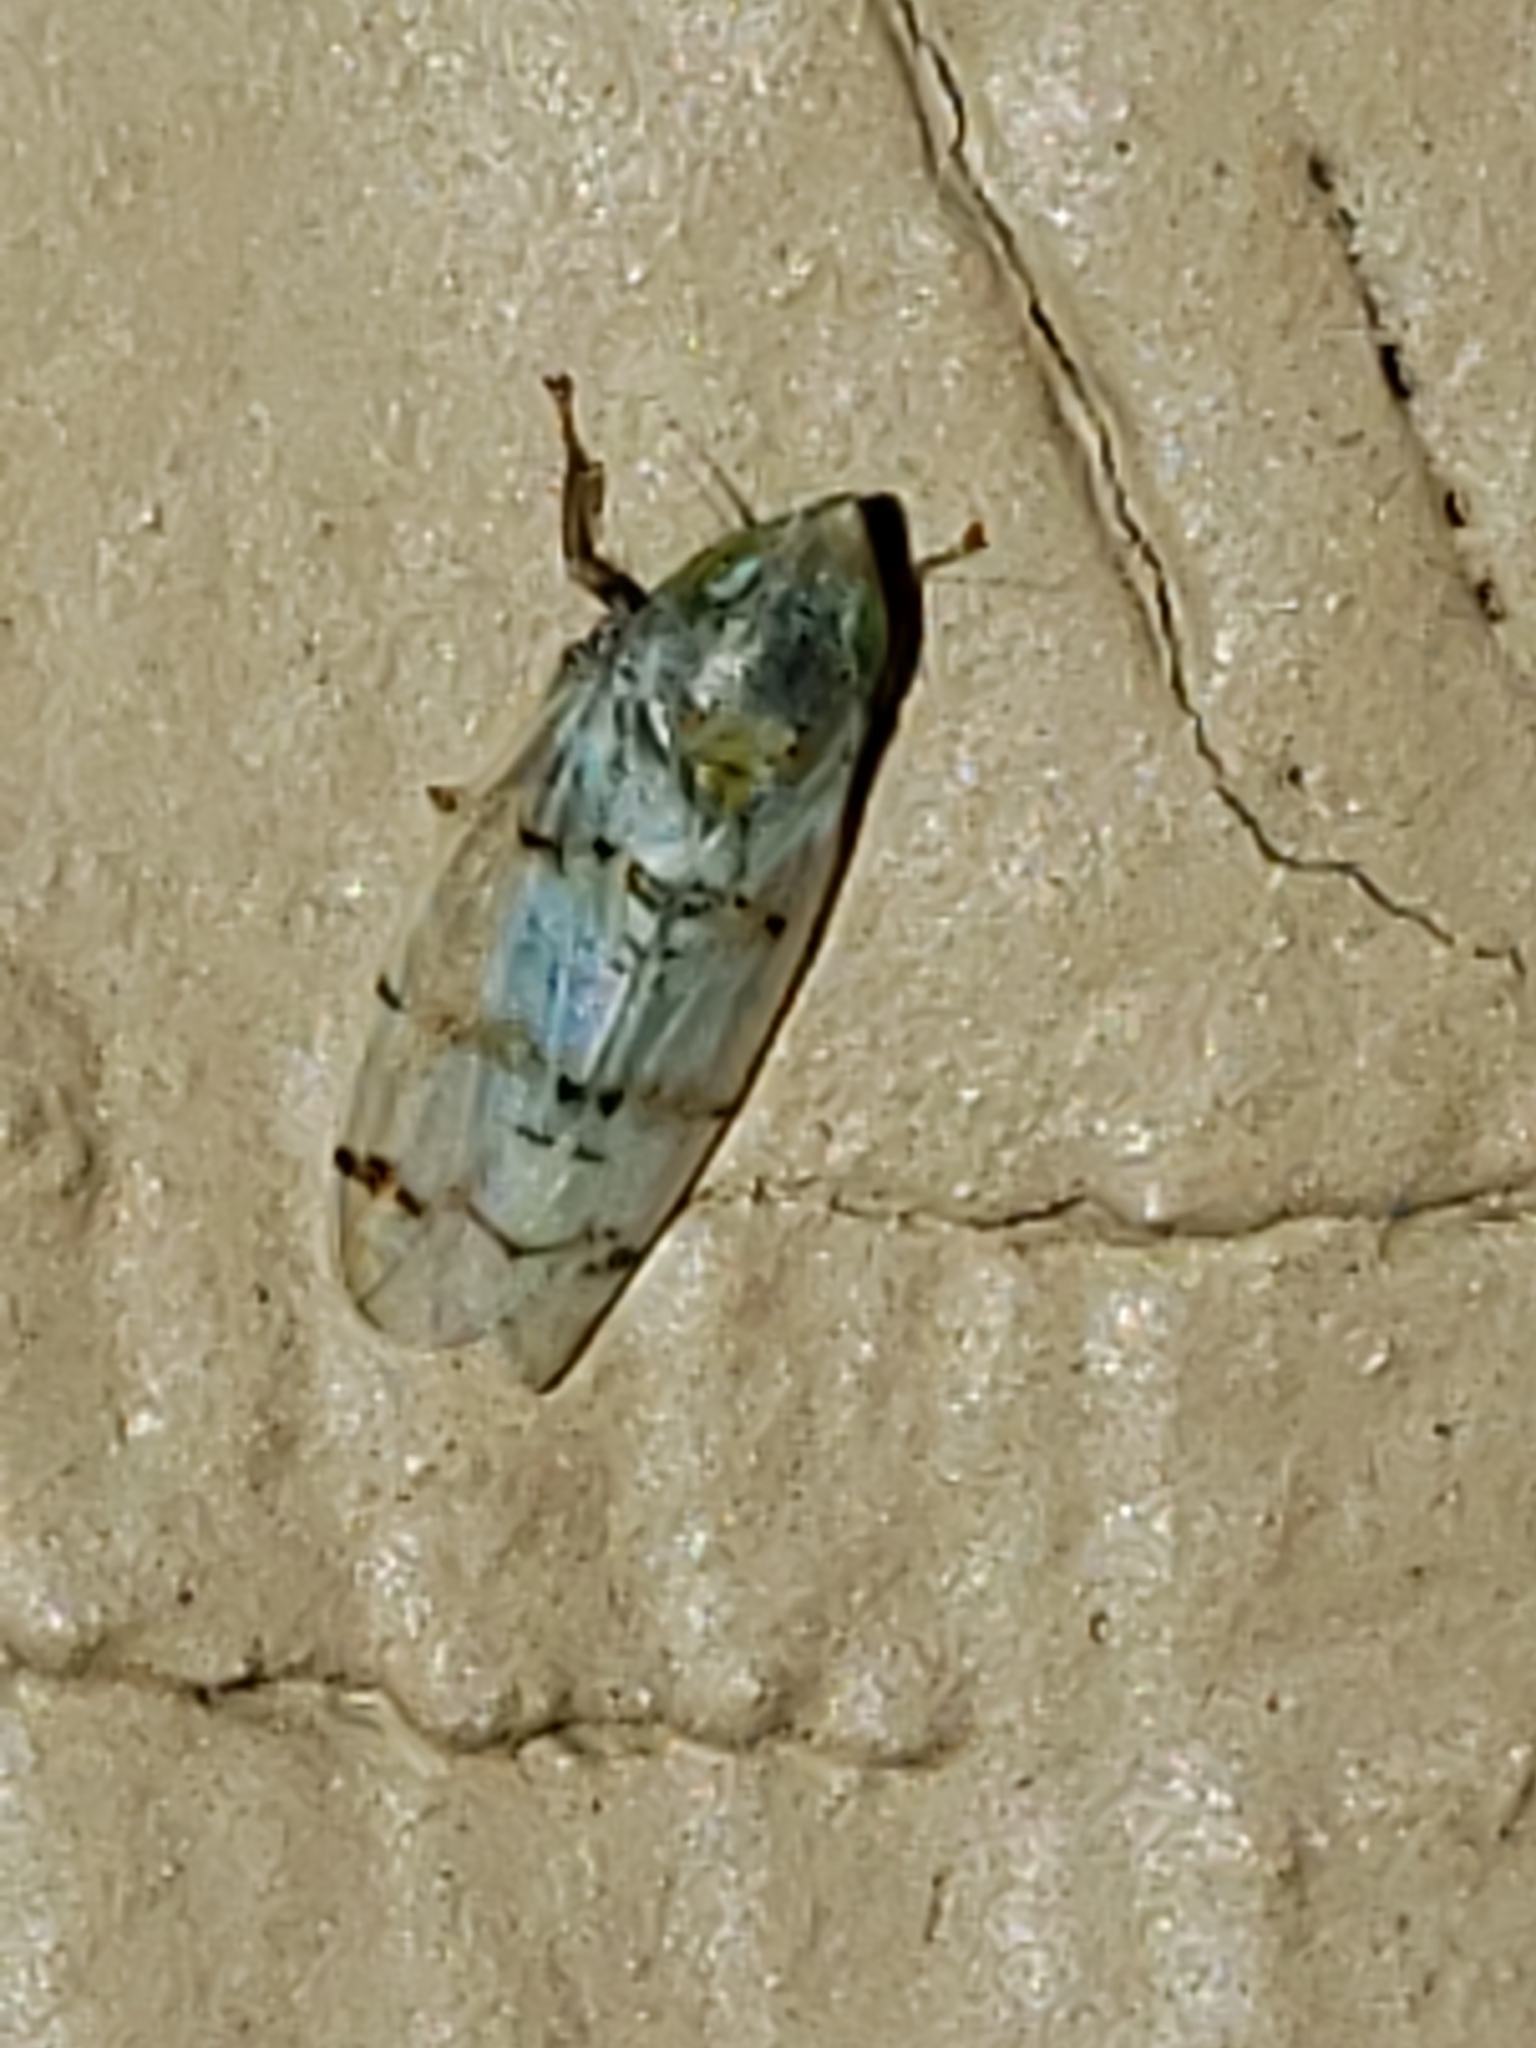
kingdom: Animalia
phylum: Arthropoda
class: Insecta
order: Hemiptera
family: Cicadellidae
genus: Japananus
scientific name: Japananus hyalinus
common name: The japanese maple leafhopper
